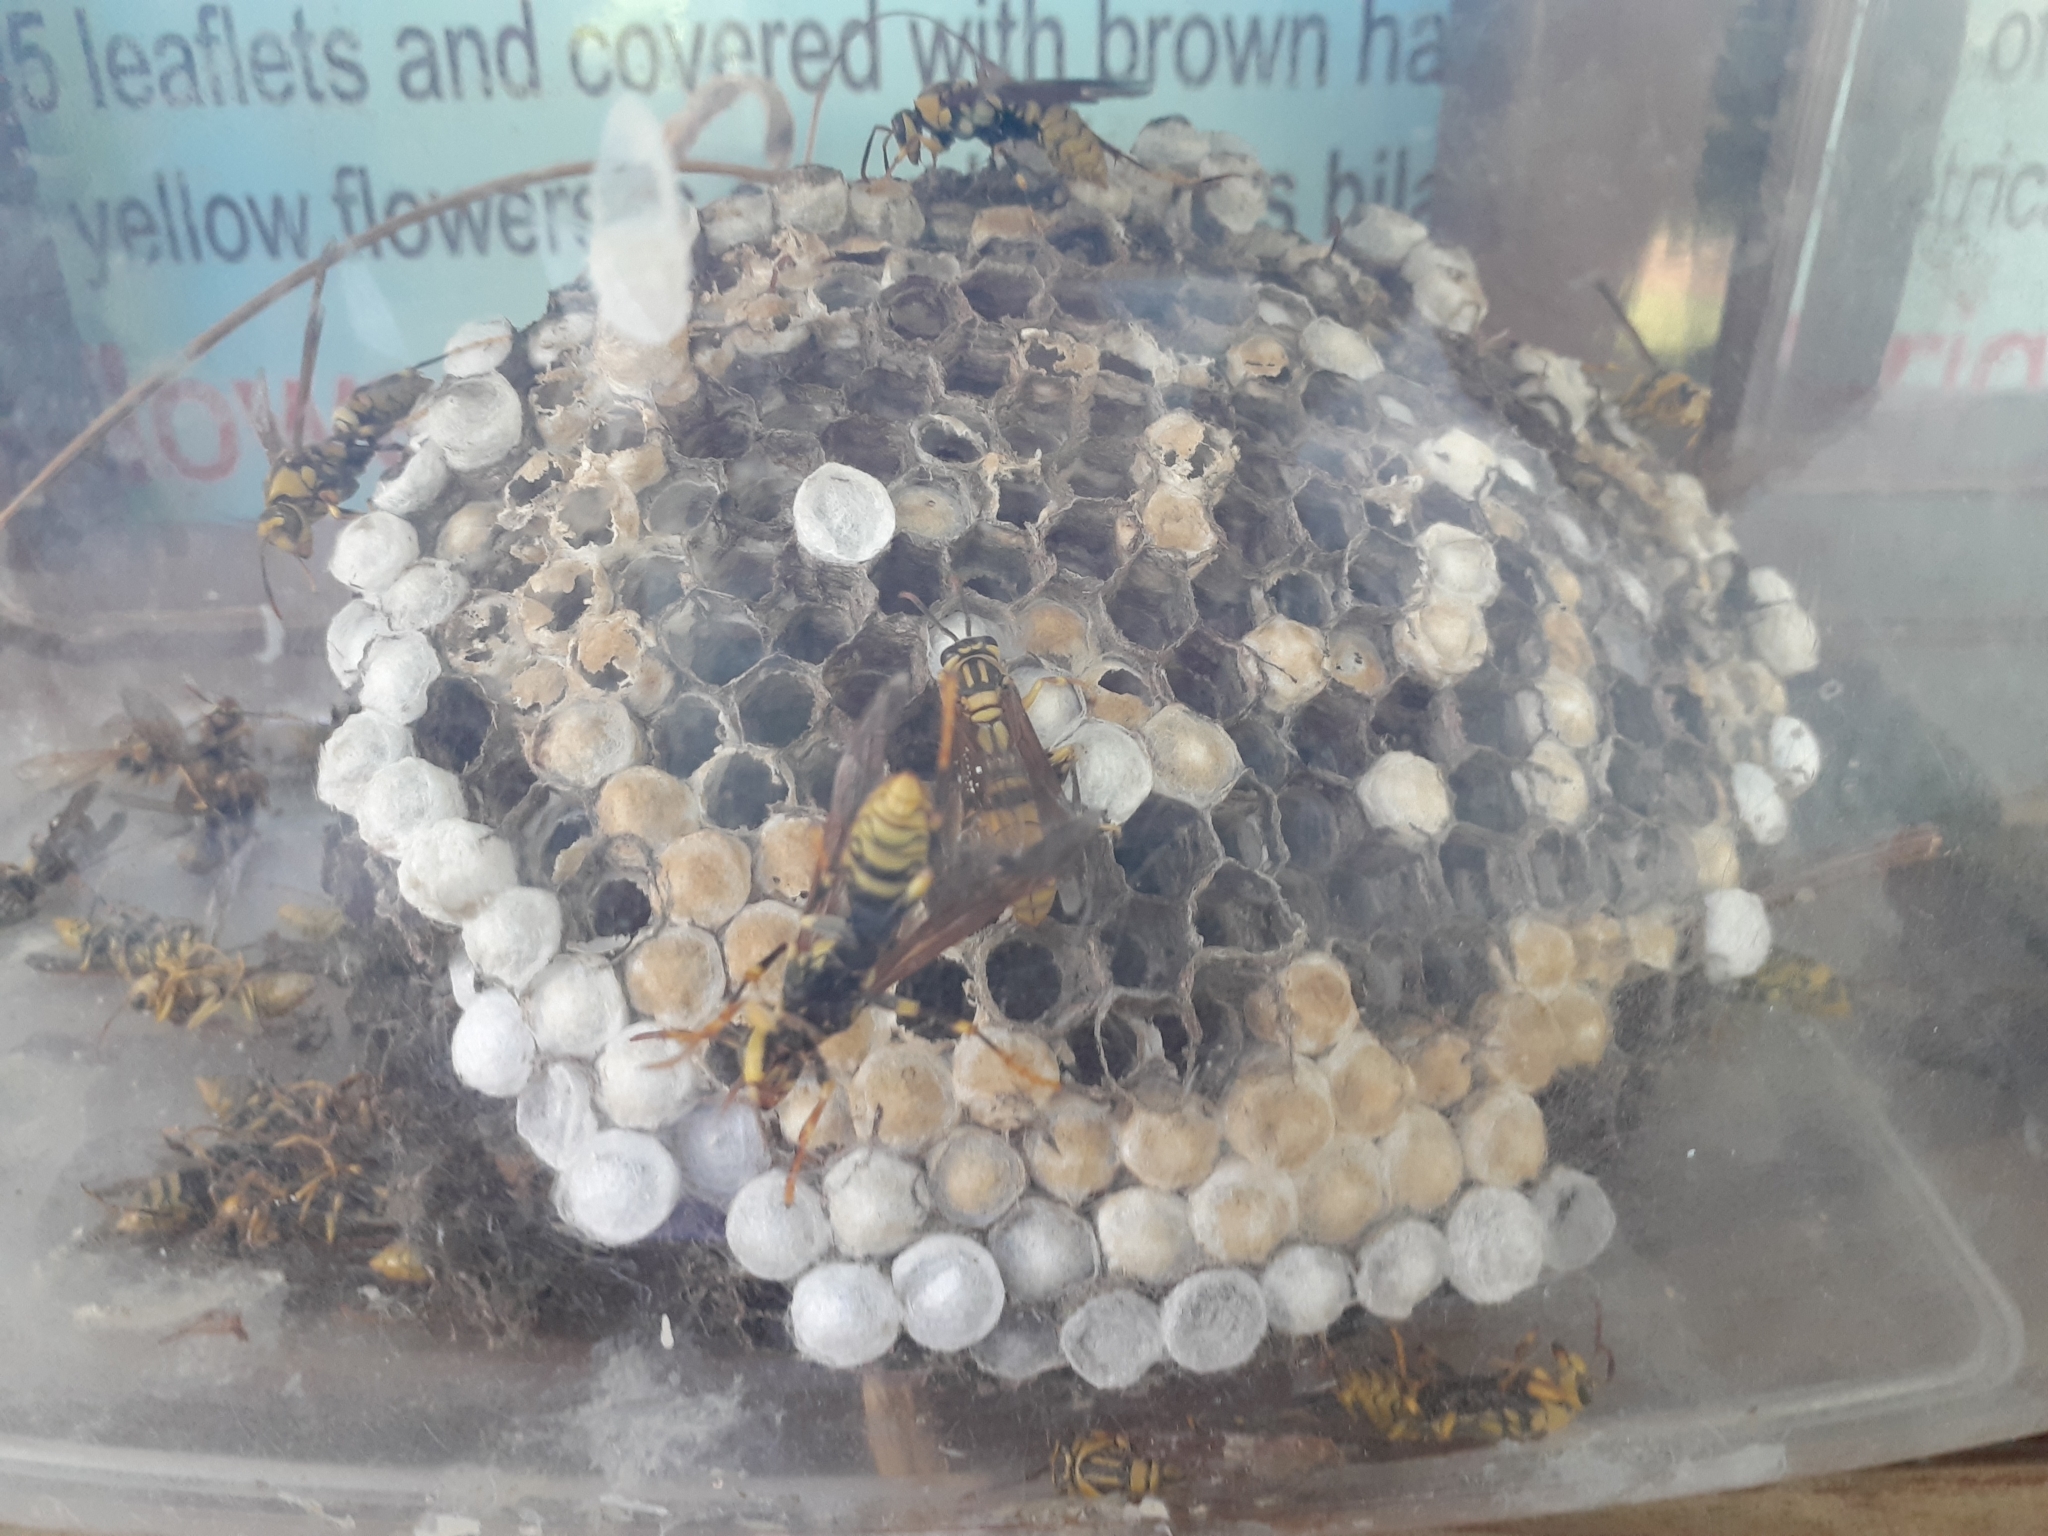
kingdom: Animalia
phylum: Arthropoda
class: Insecta
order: Hymenoptera
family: Eumenidae
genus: Polistes
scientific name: Polistes rothneyi
